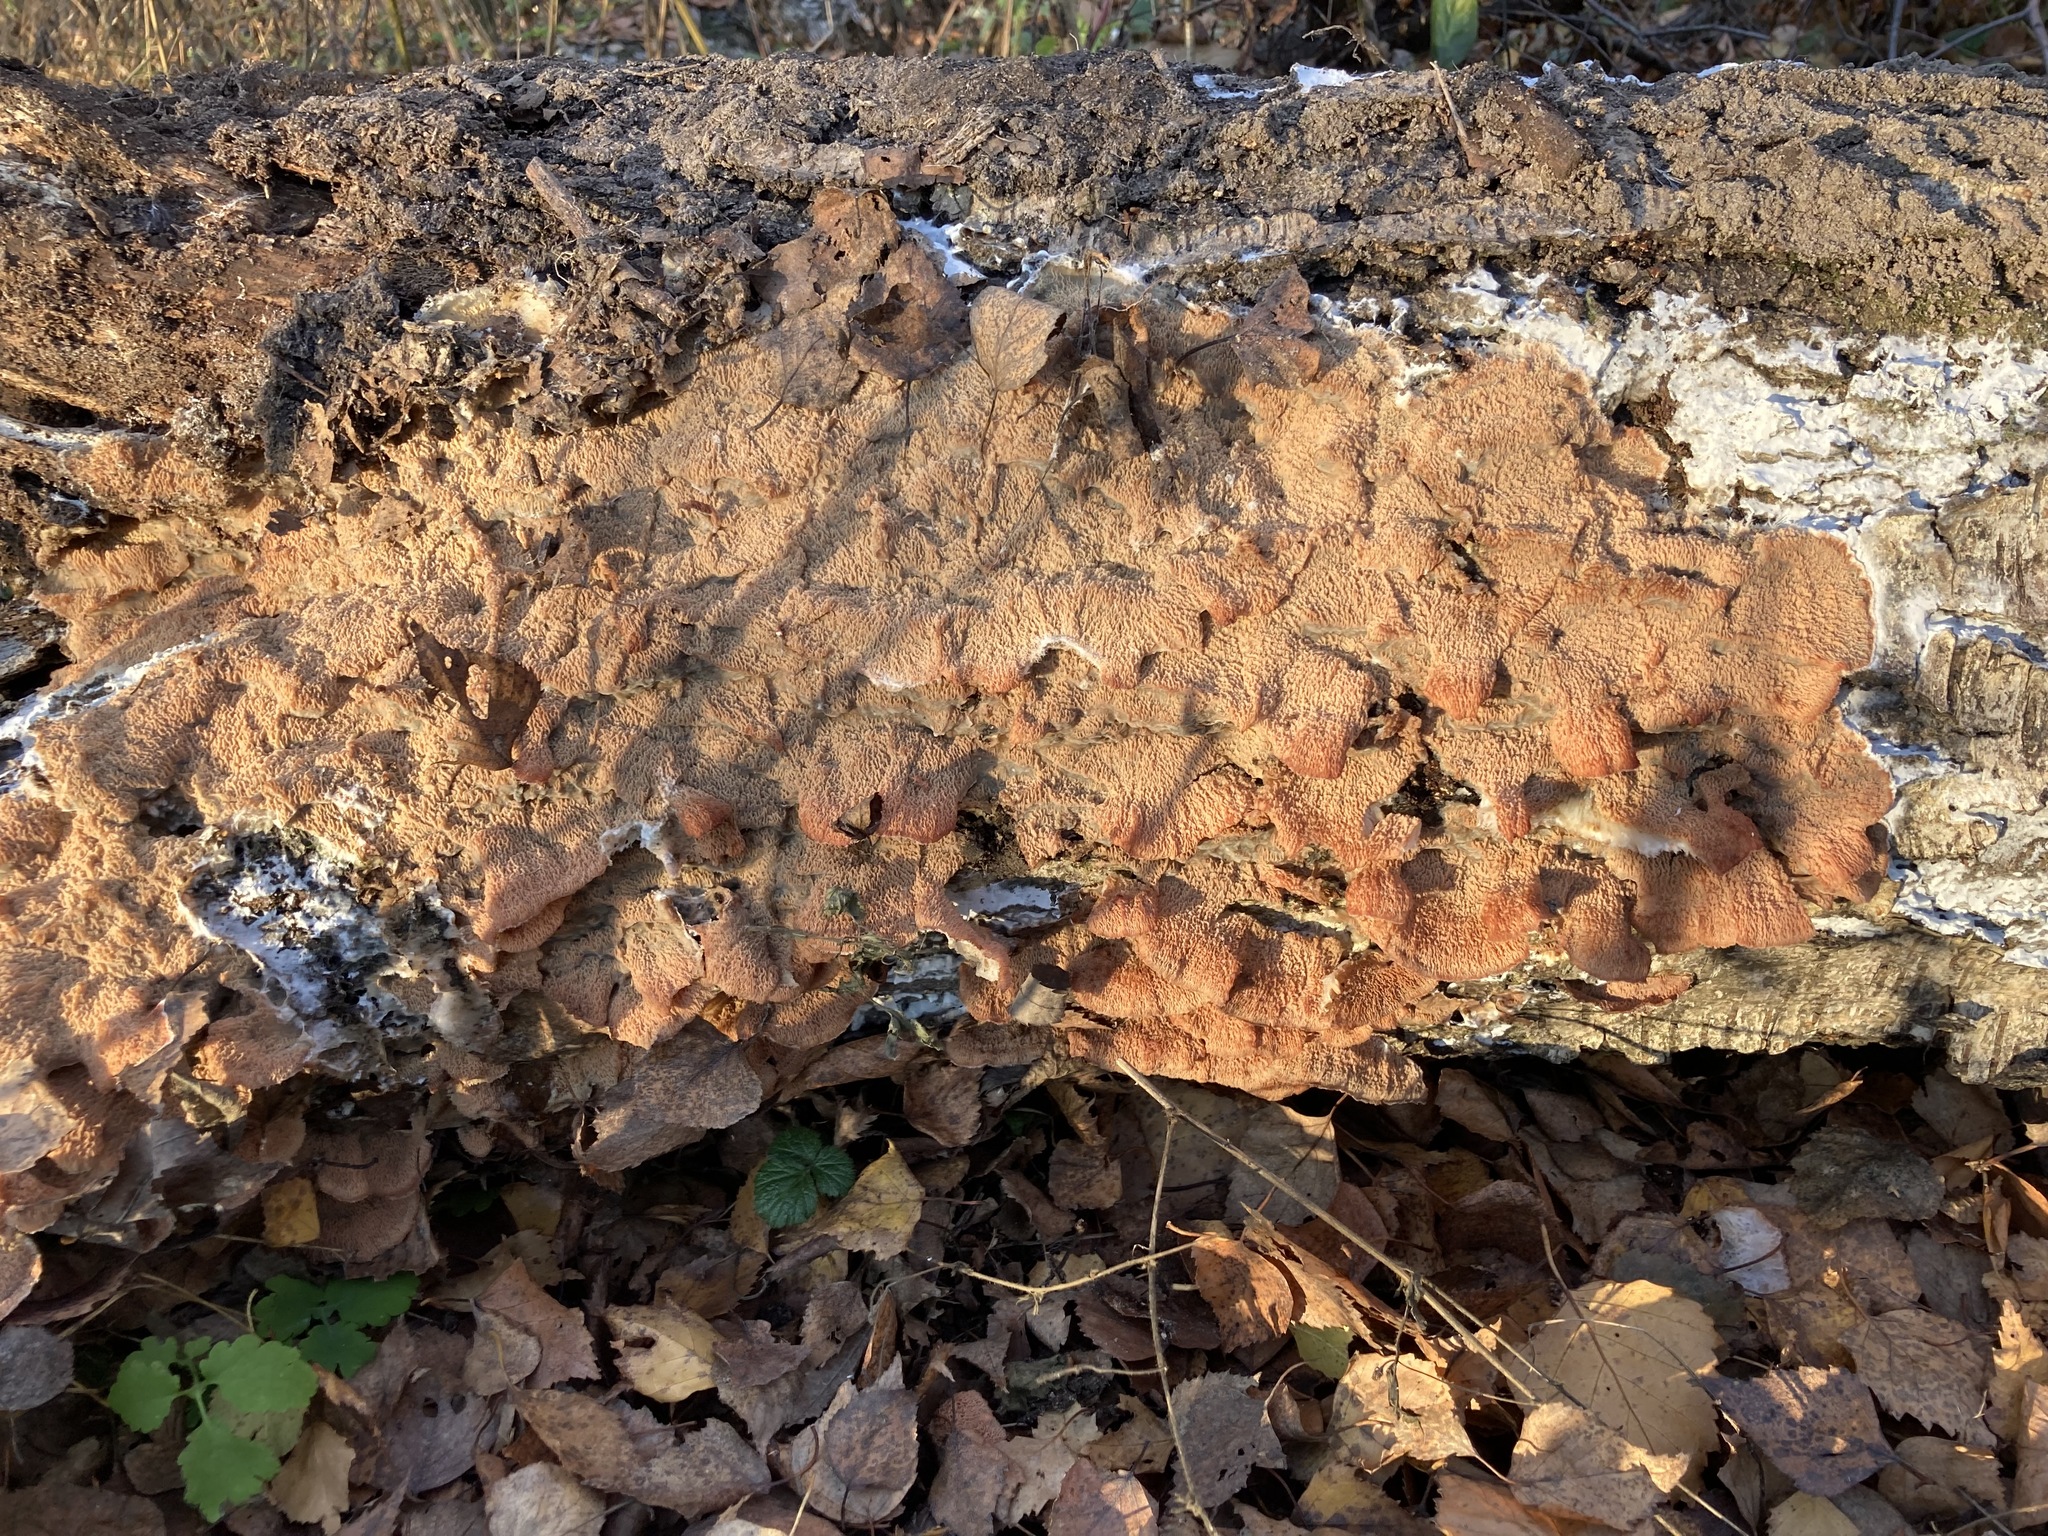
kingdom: Fungi
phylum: Basidiomycota
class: Agaricomycetes
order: Polyporales
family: Meruliaceae
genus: Phlebia
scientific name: Phlebia radiata
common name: Wrinkled crust
